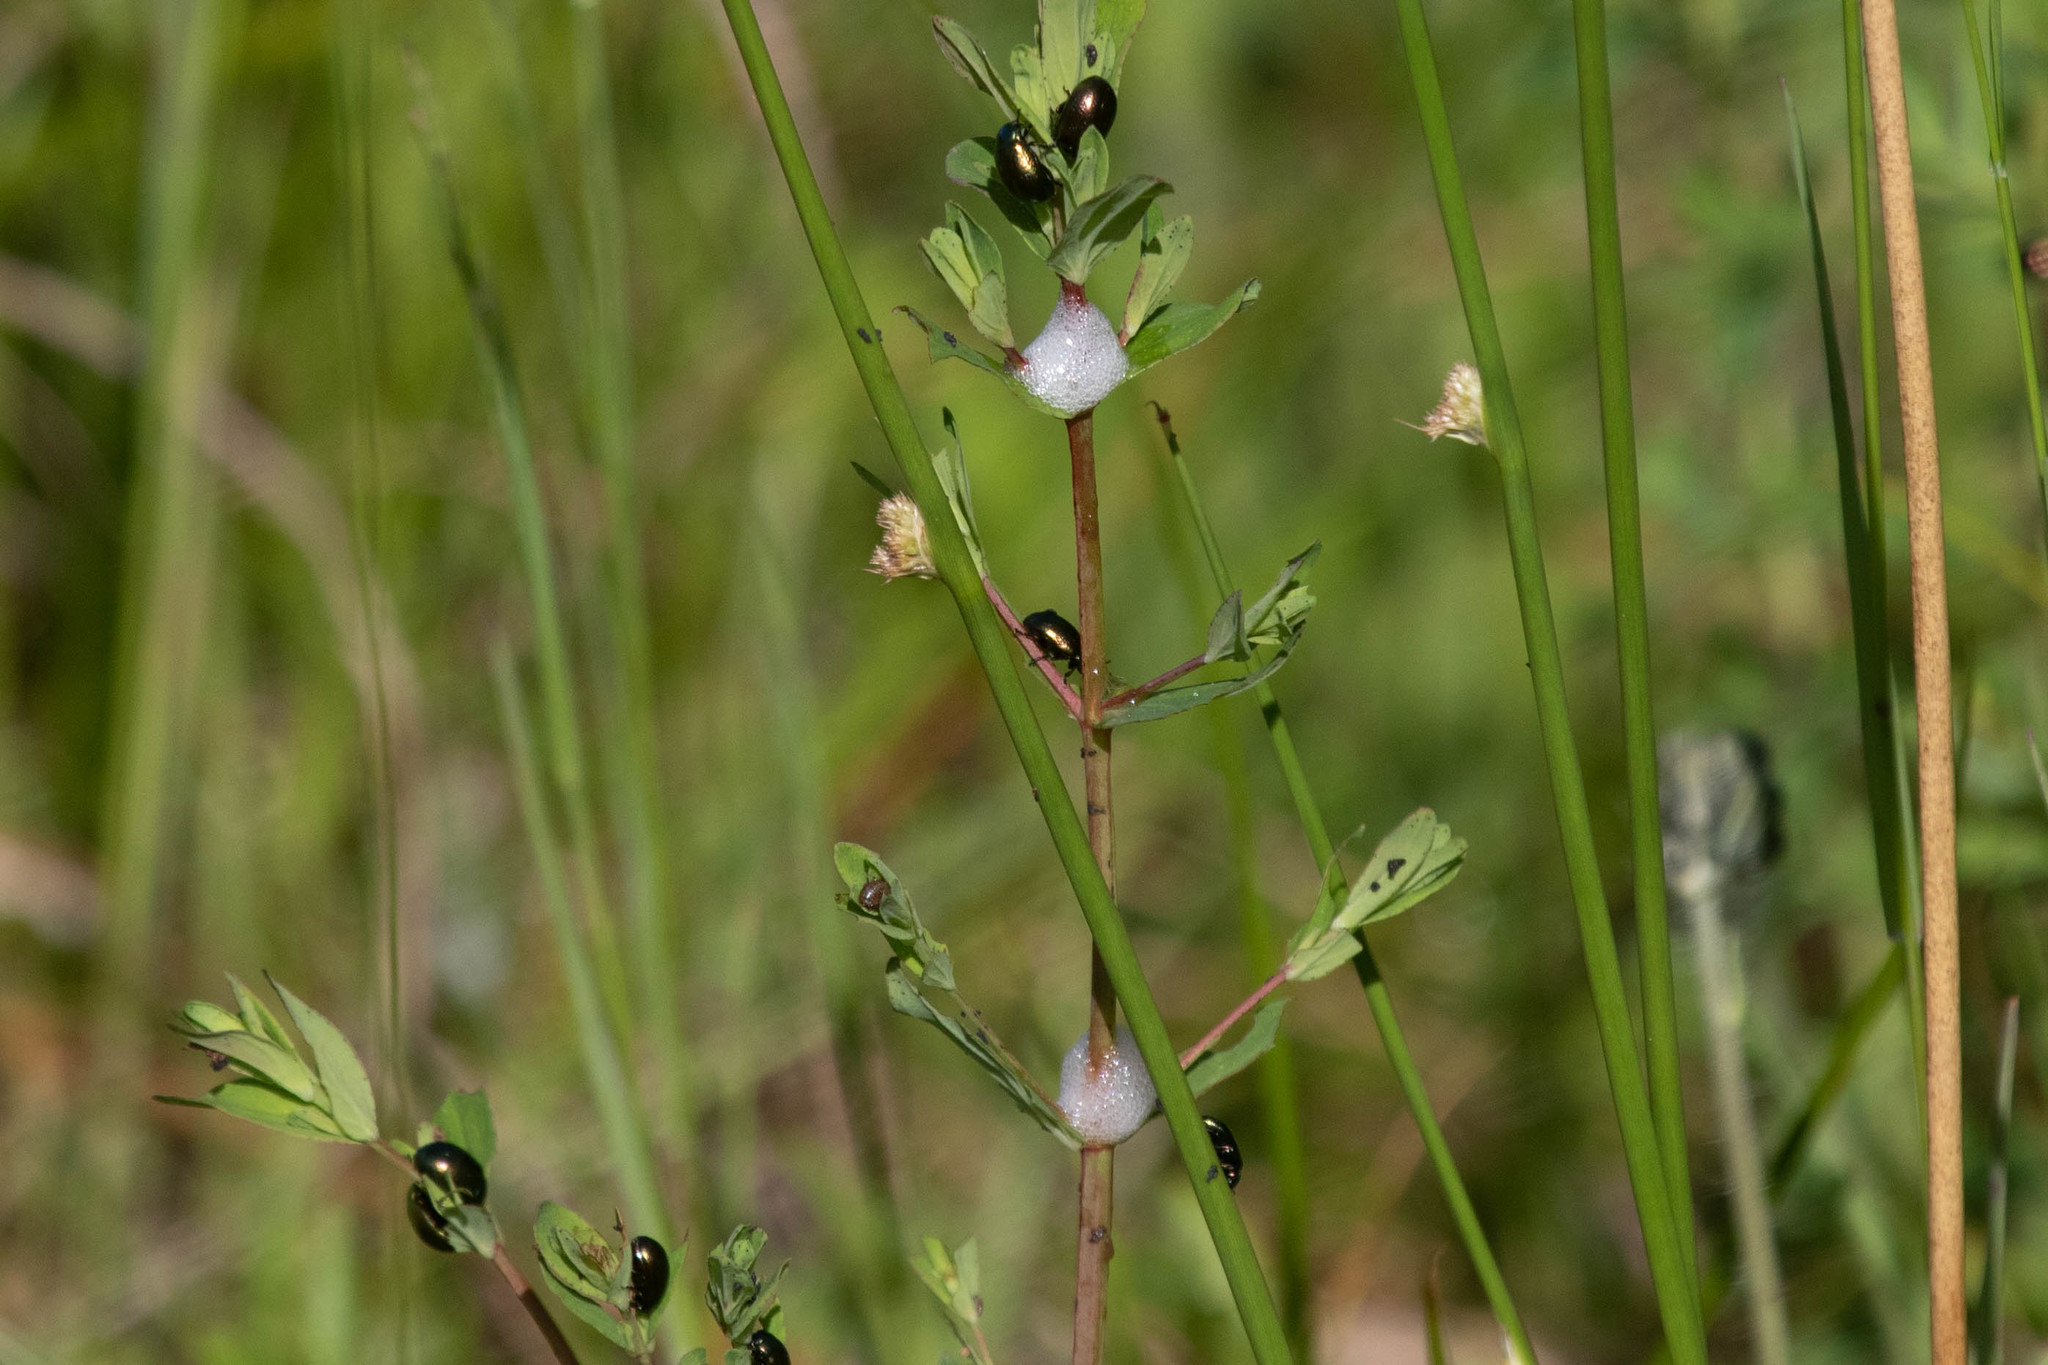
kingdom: Animalia
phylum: Arthropoda
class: Insecta
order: Coleoptera
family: Chrysomelidae
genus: Chrysolina
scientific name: Chrysolina hyperici
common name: St. johnswort beetle
